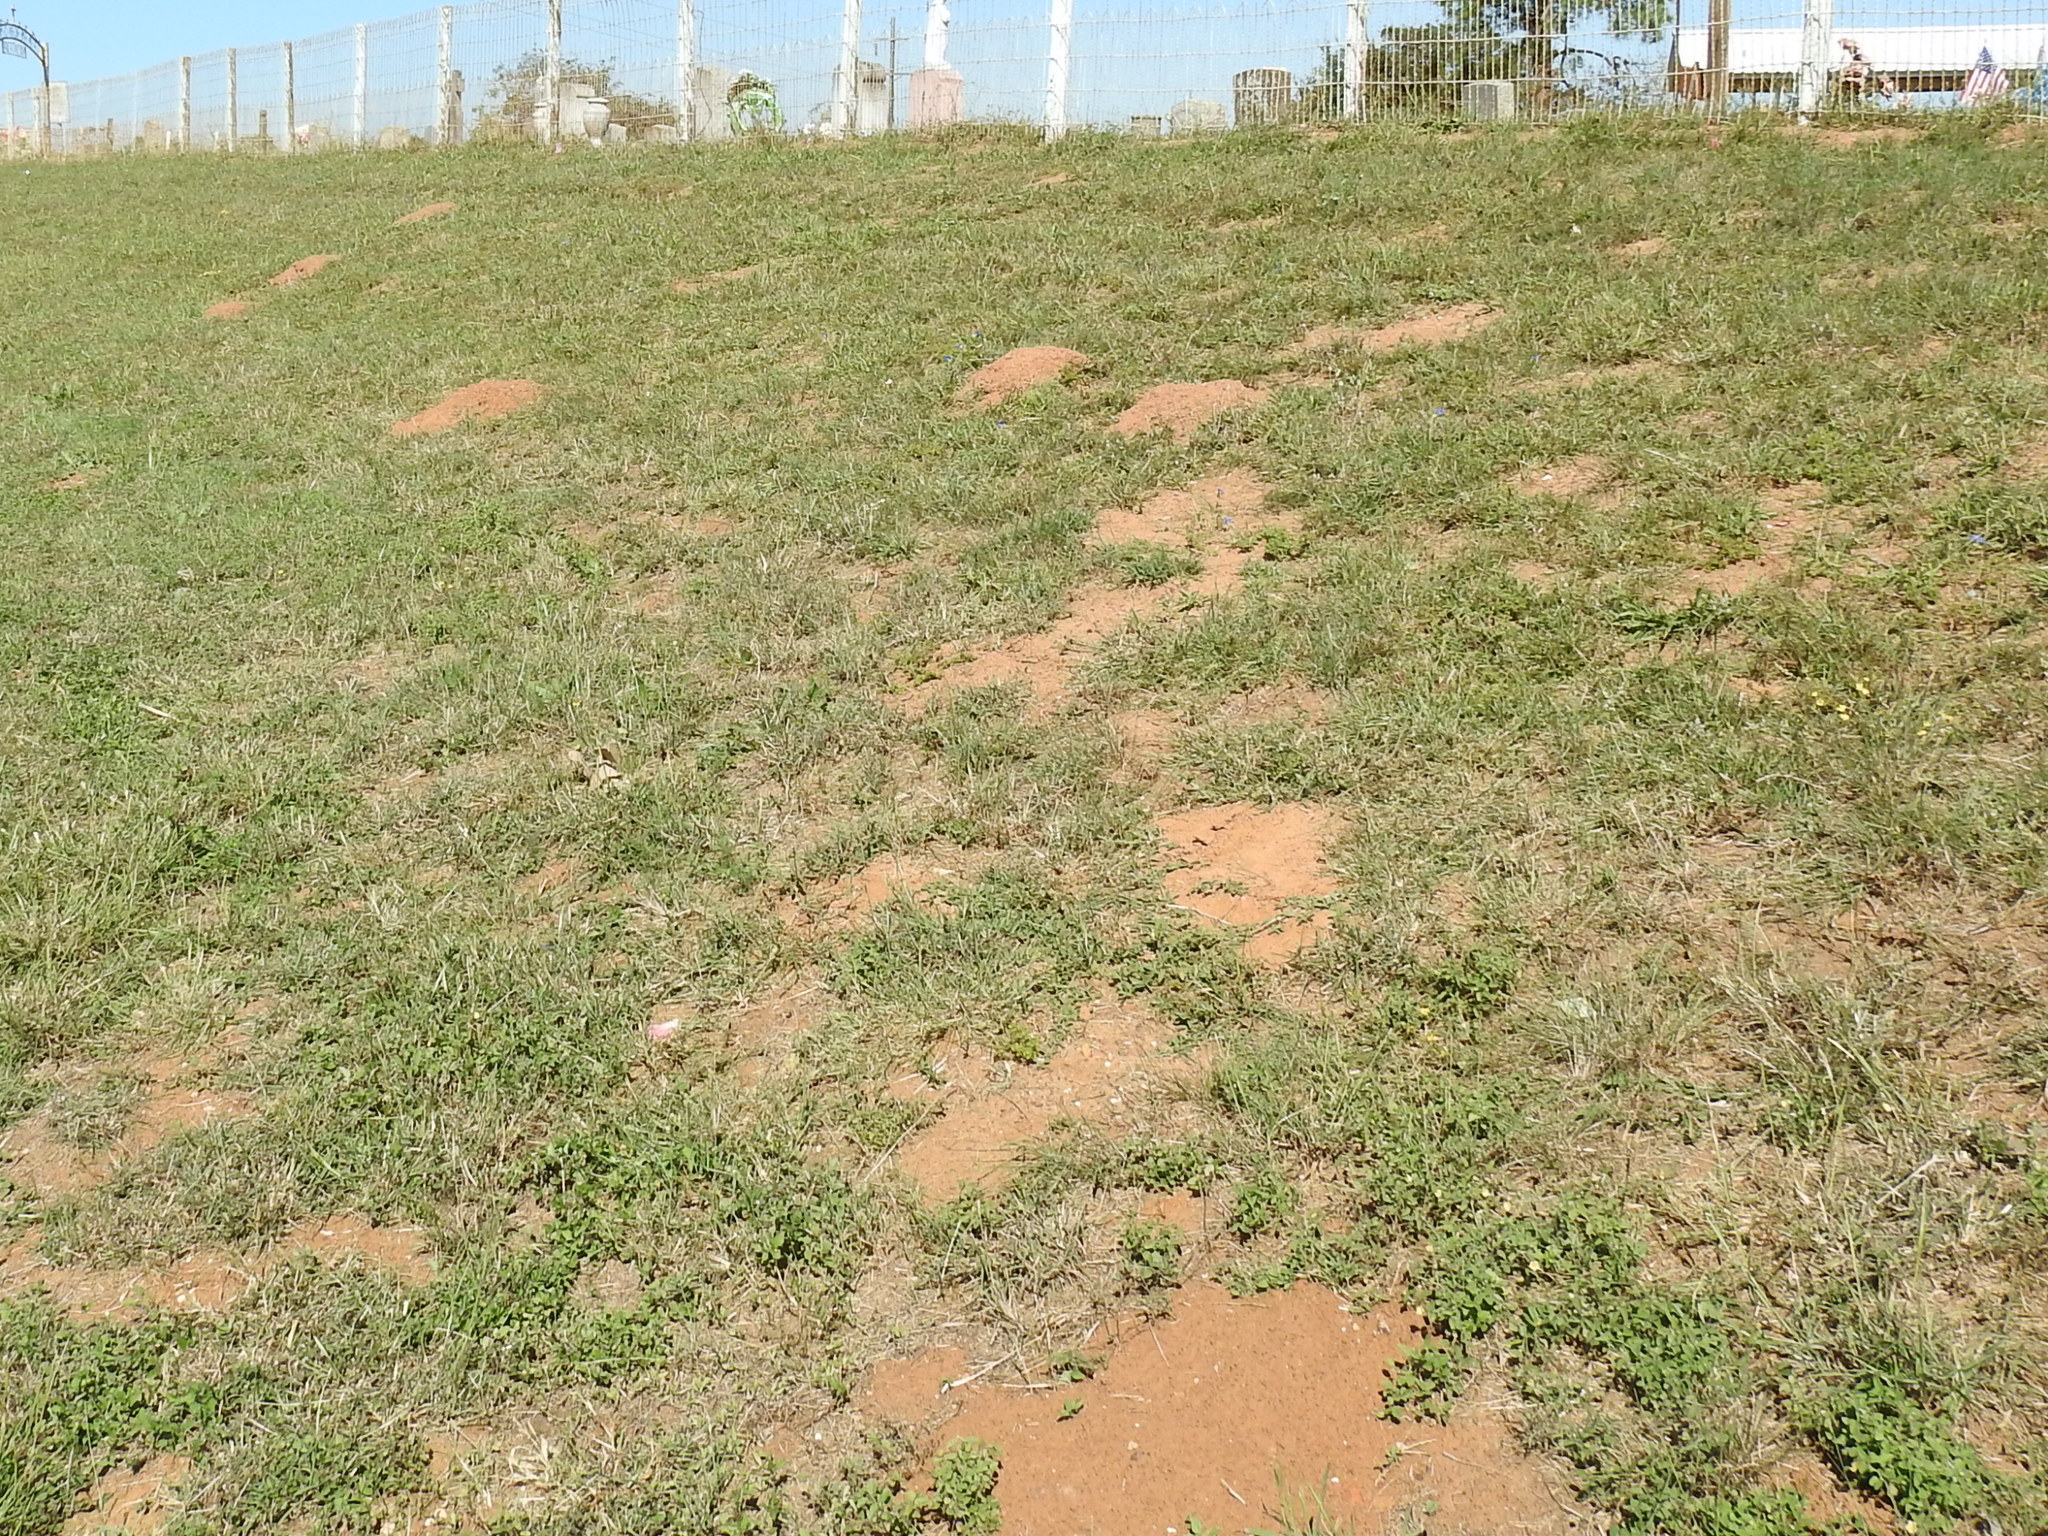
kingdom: Animalia
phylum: Chordata
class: Mammalia
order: Rodentia
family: Geomyidae
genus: Geomys
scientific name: Geomys attwateri
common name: Attwater's pocket gopher
